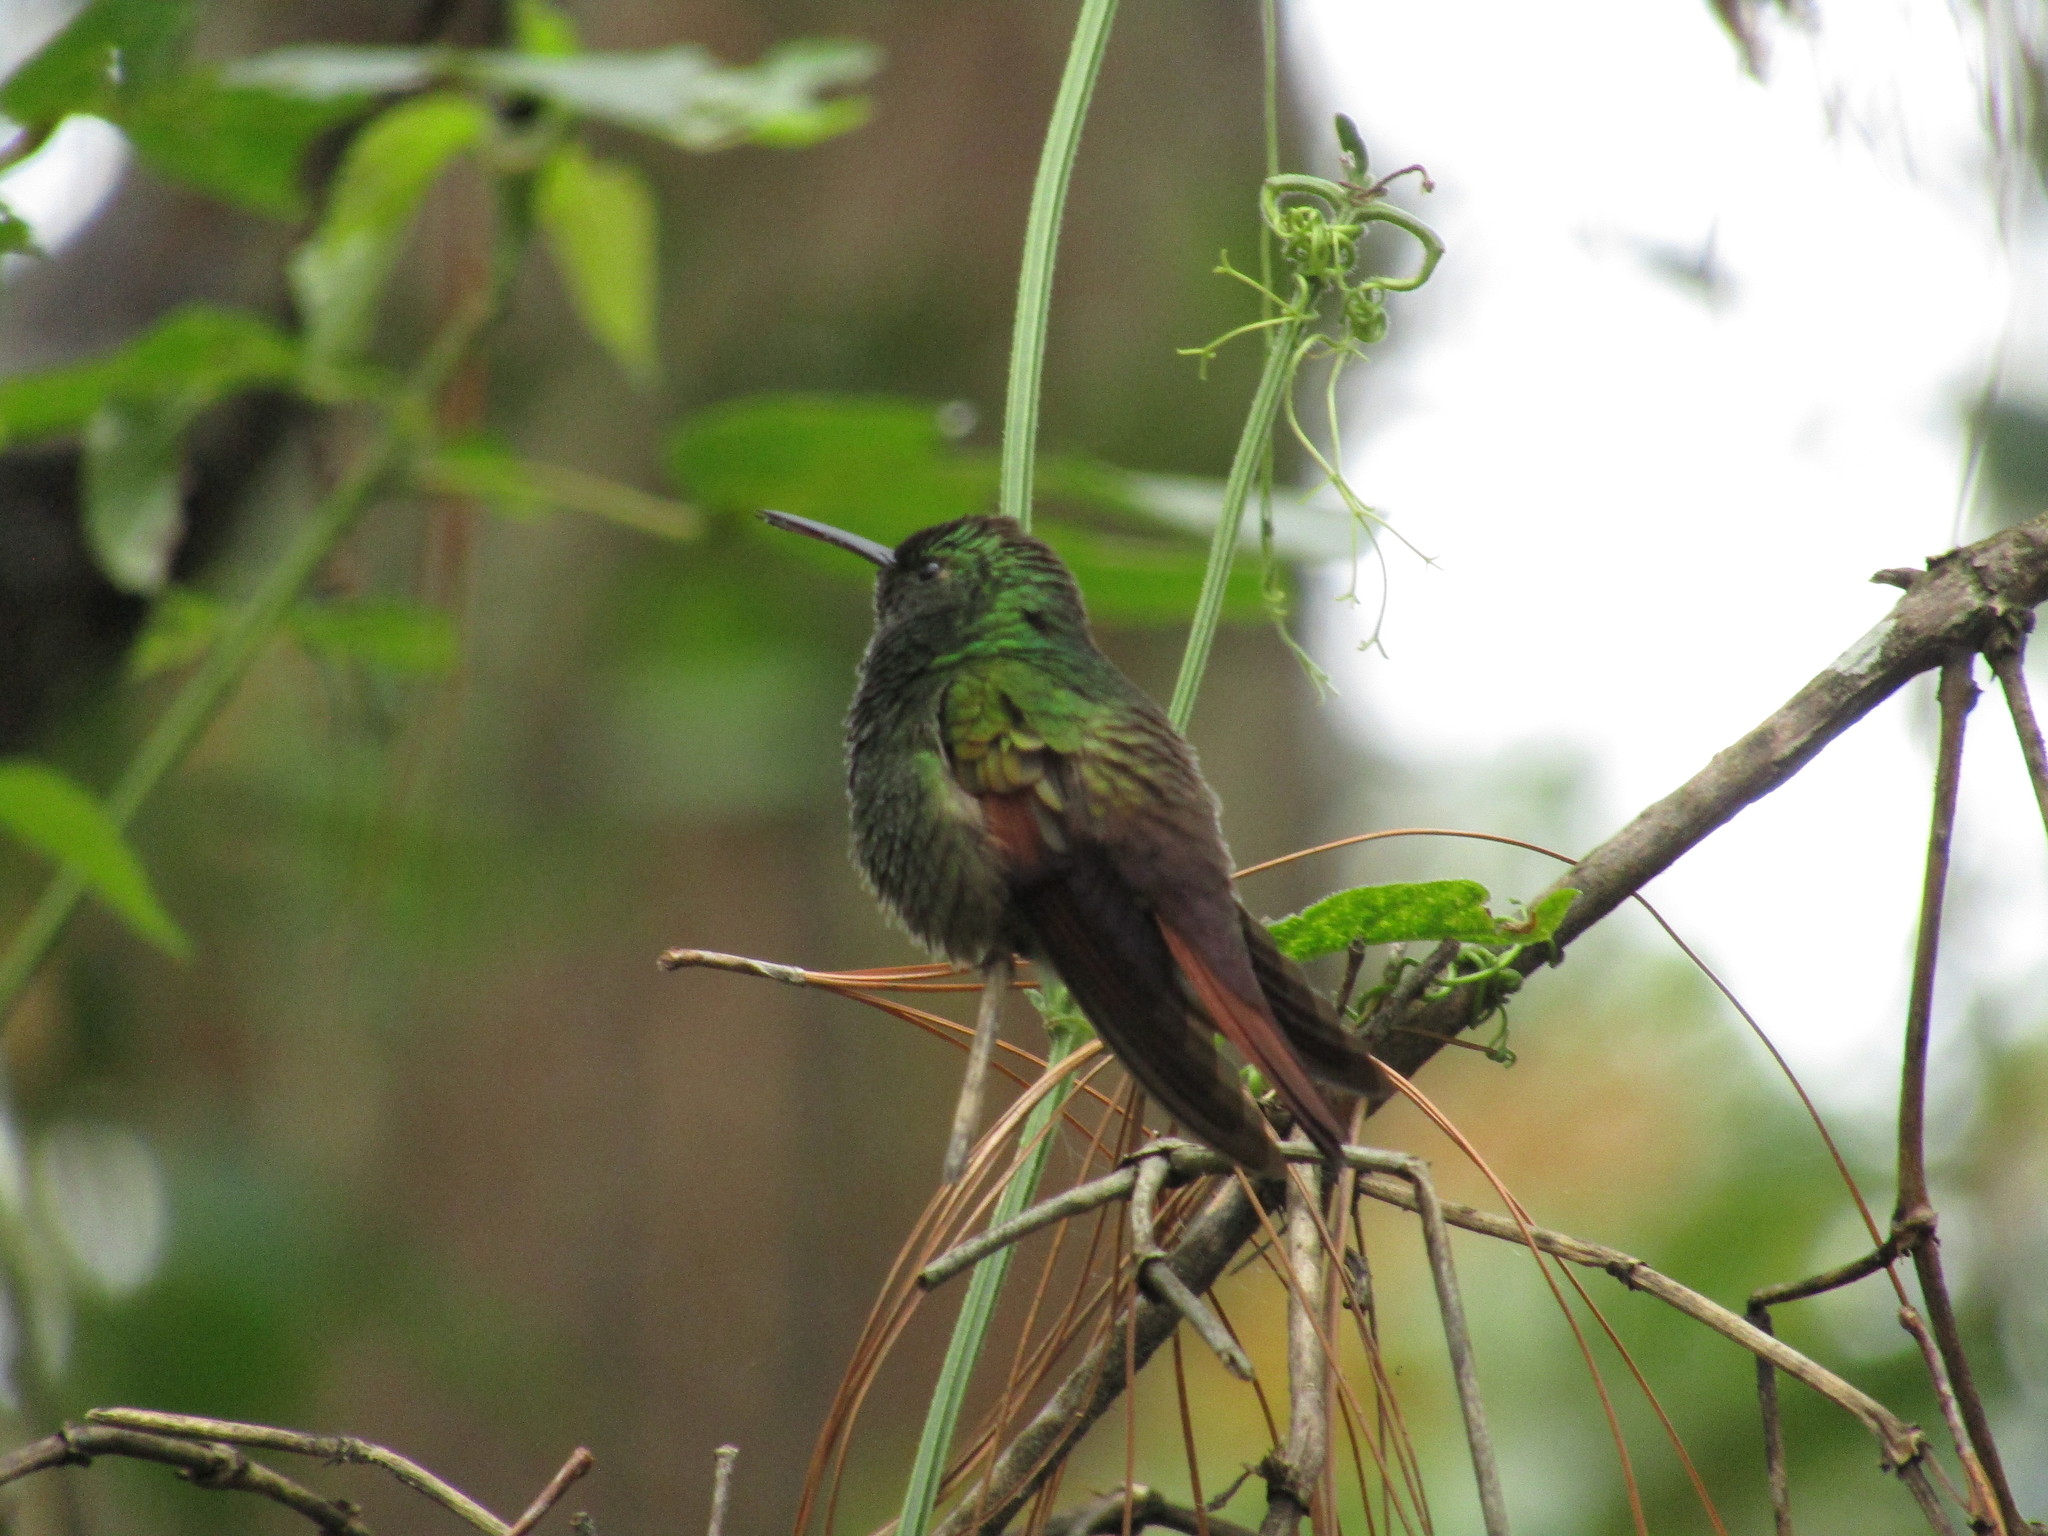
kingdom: Animalia
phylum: Chordata
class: Aves
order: Apodiformes
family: Trochilidae
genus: Saucerottia
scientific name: Saucerottia beryllina
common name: Berylline hummingbird
